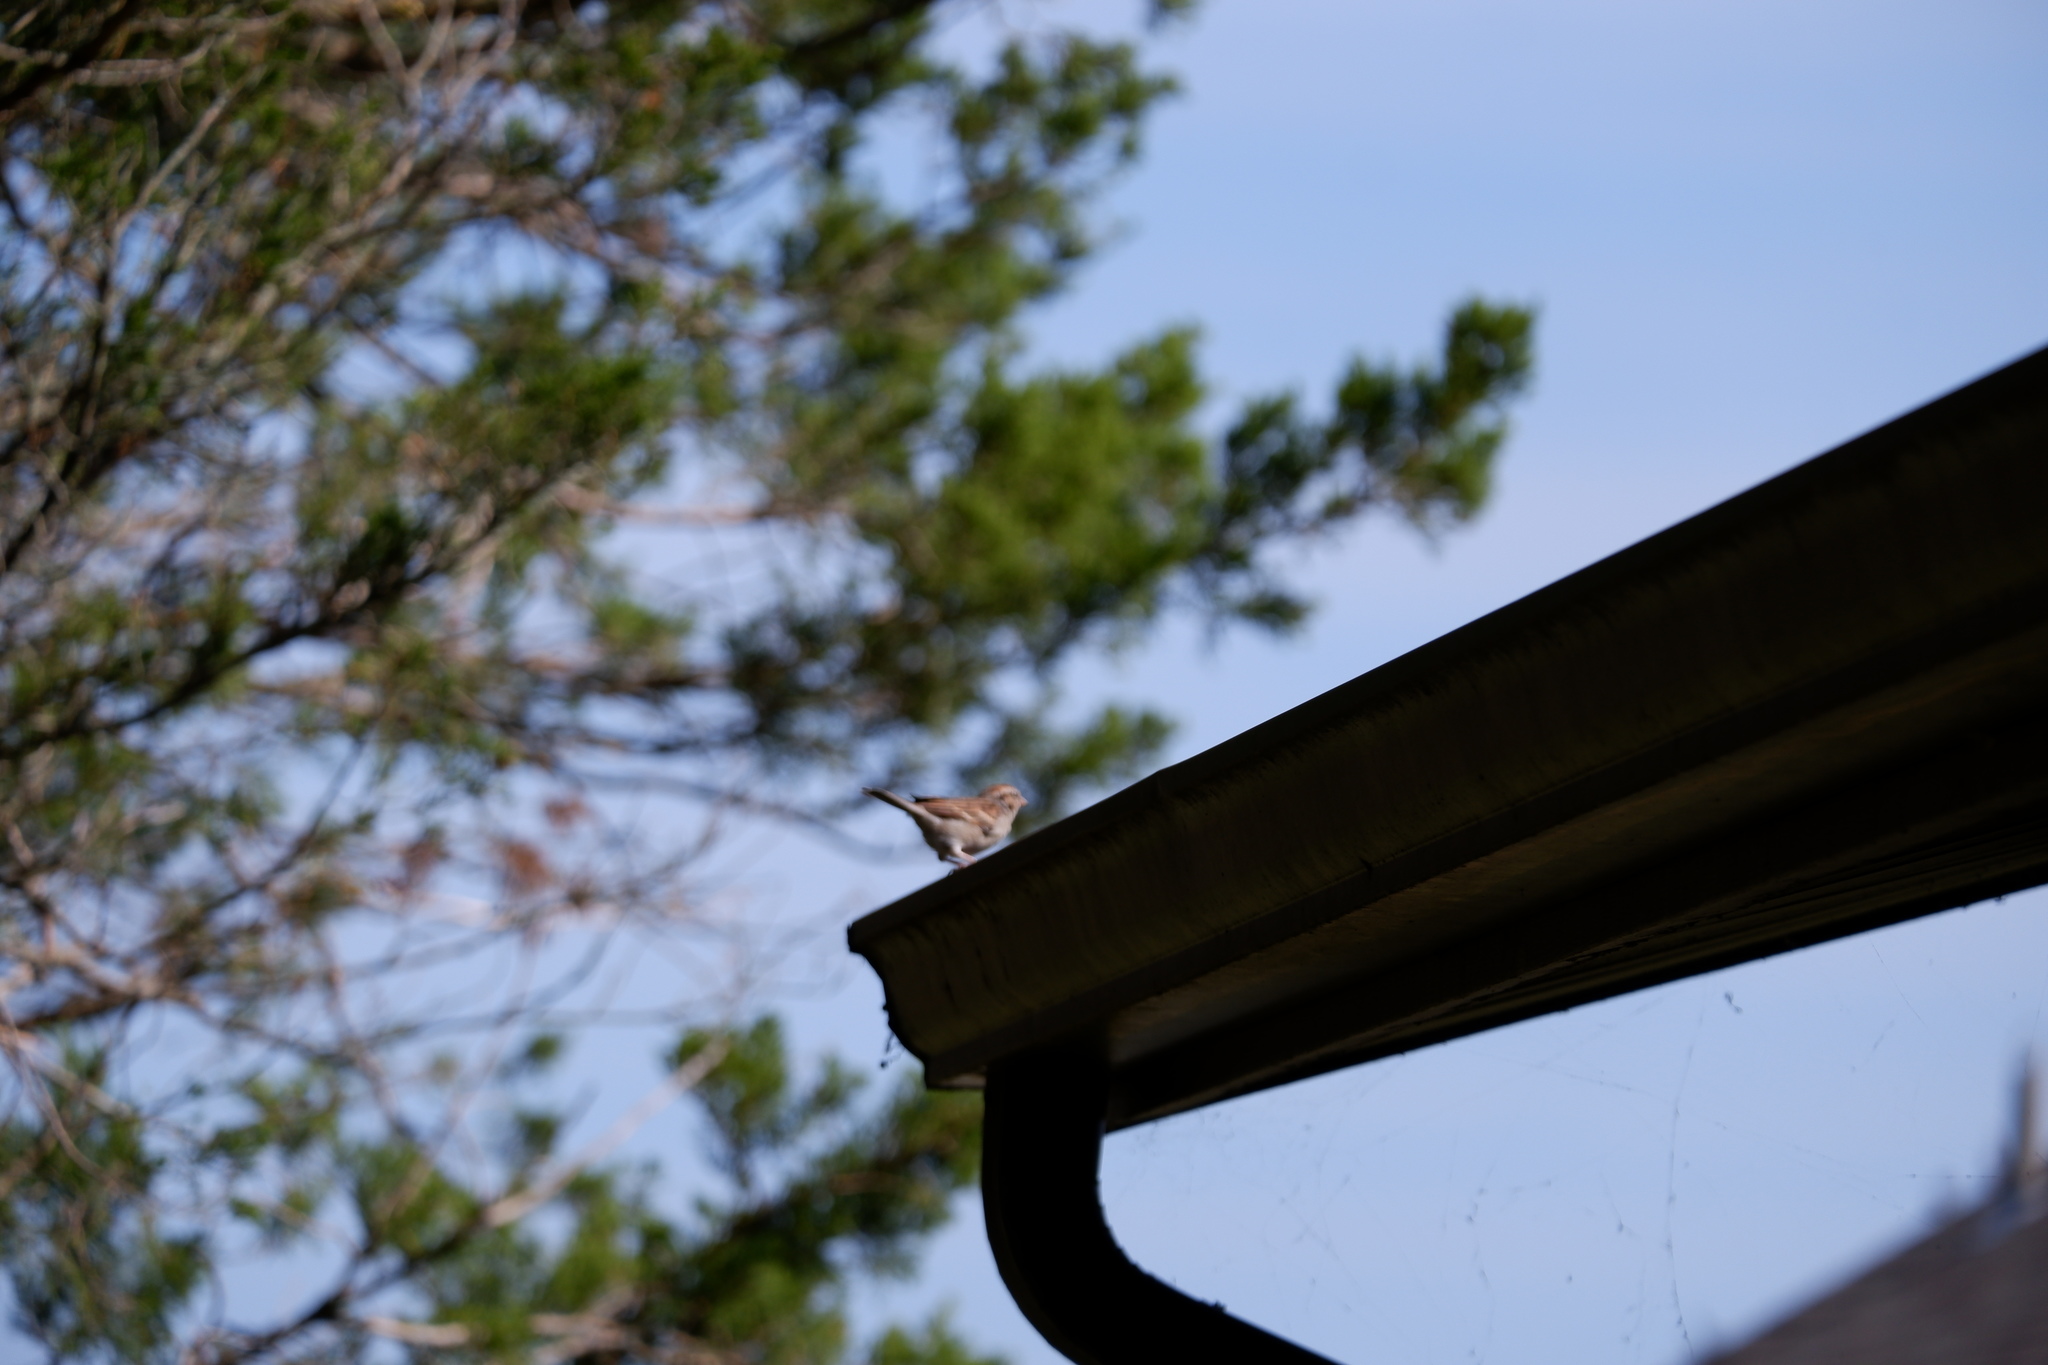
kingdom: Animalia
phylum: Chordata
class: Aves
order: Passeriformes
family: Passerellidae
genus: Spizella
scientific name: Spizella passerina
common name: Chipping sparrow
